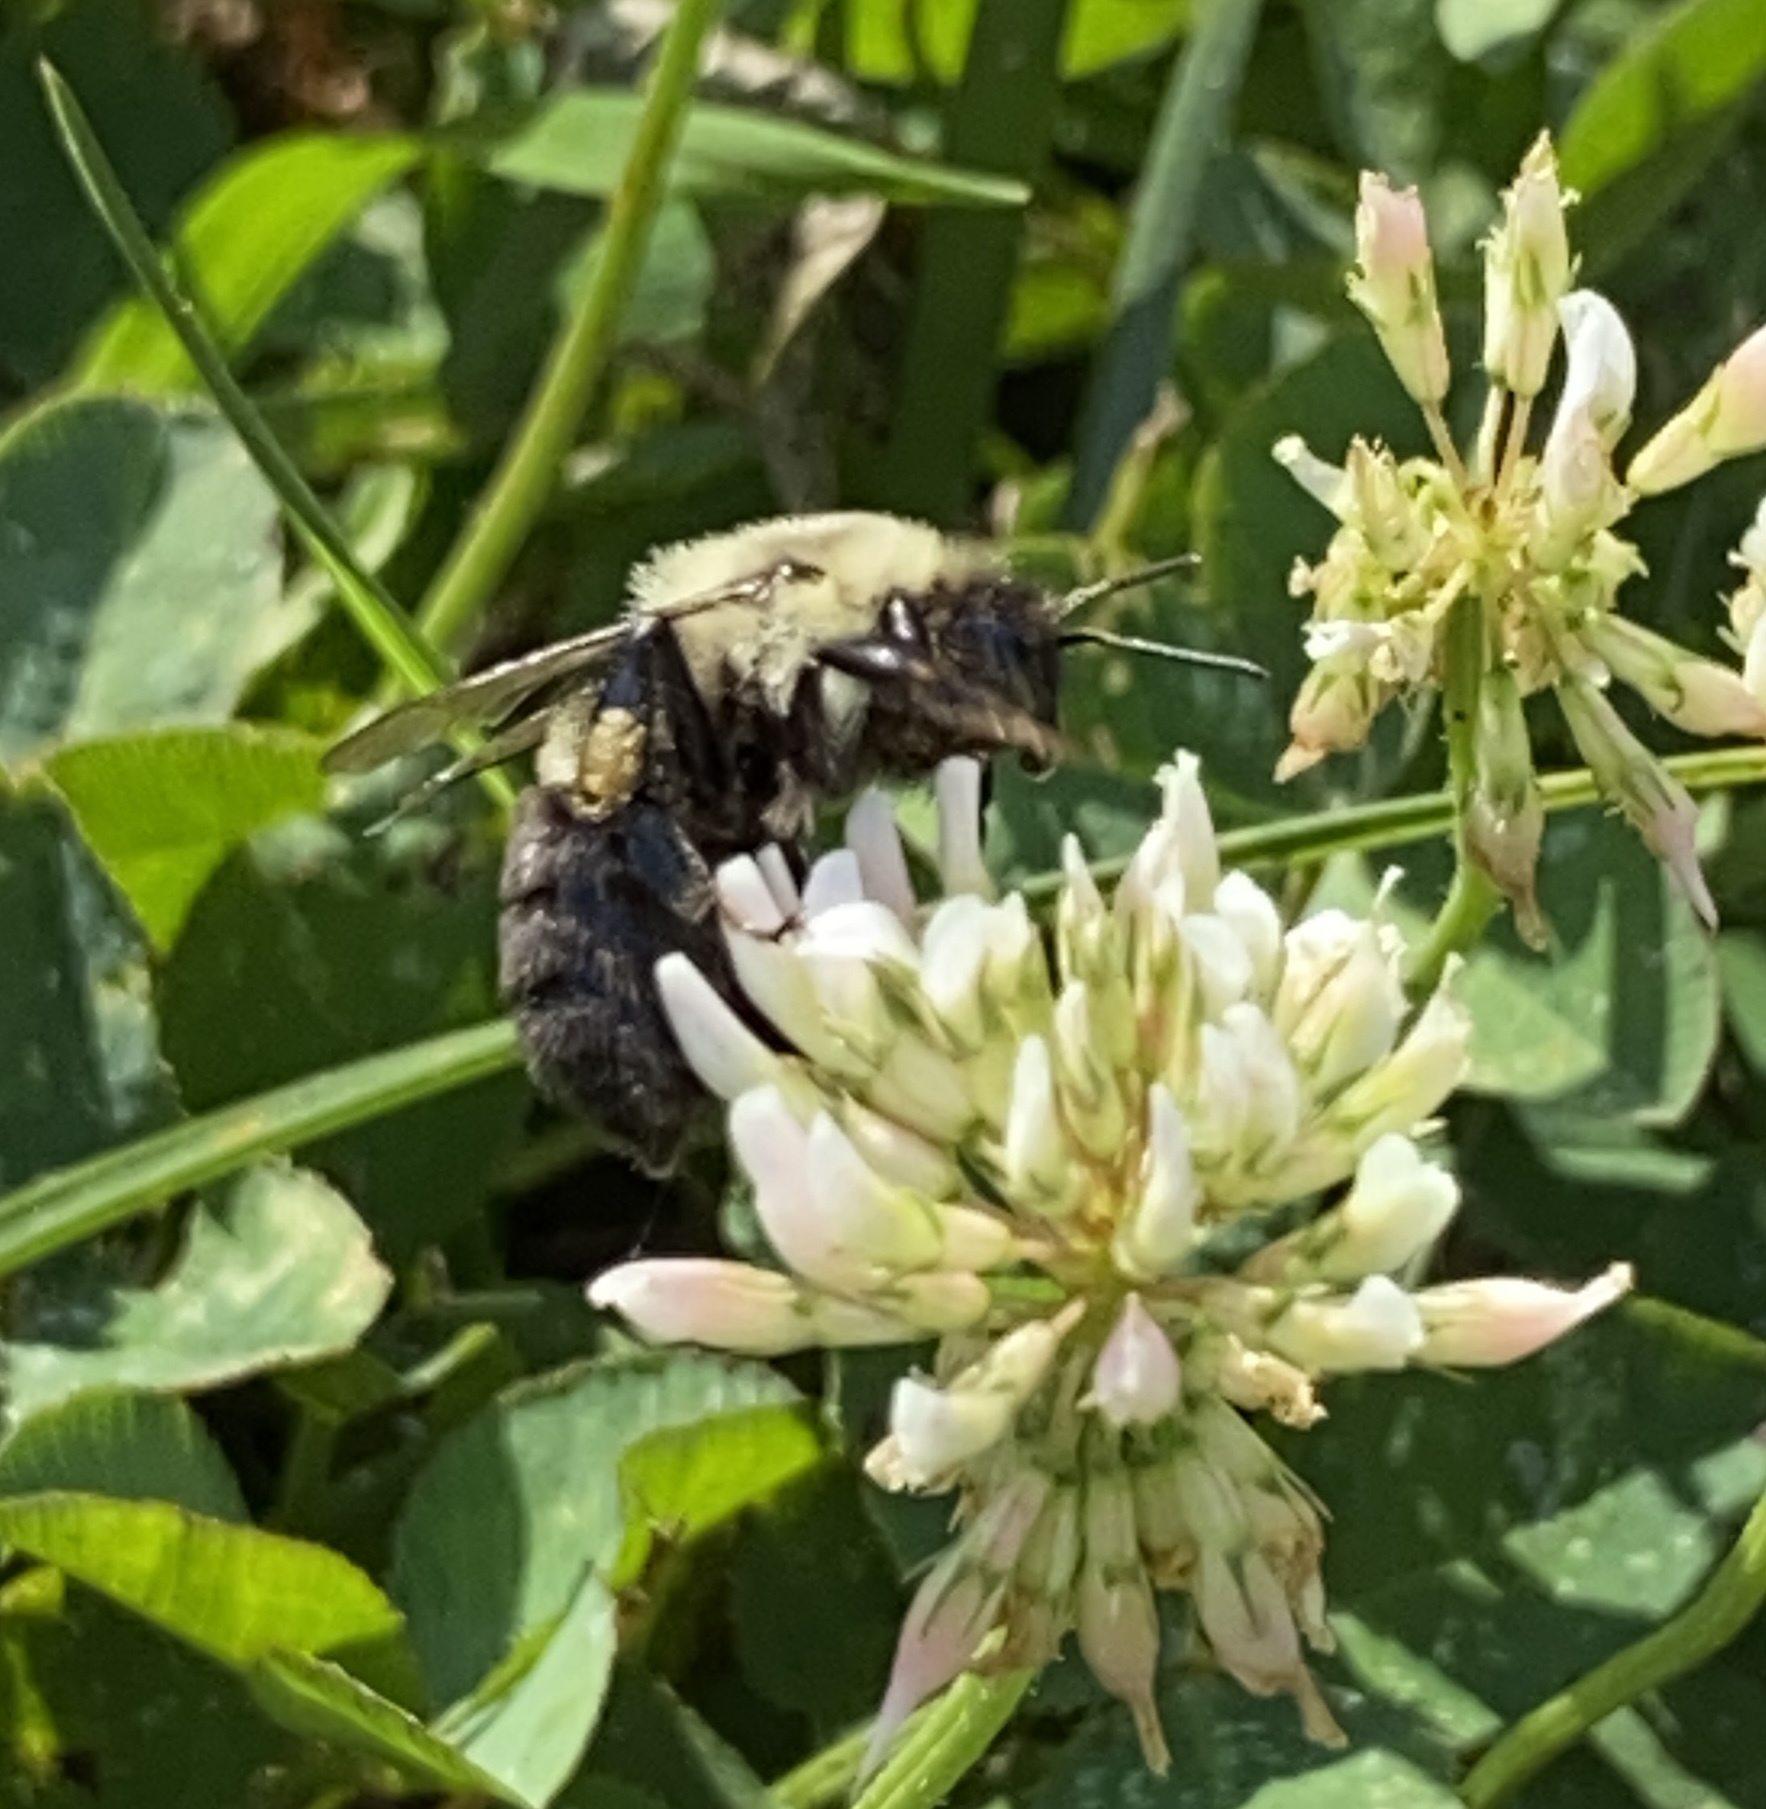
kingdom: Animalia
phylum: Arthropoda
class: Insecta
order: Hymenoptera
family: Apidae
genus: Bombus
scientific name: Bombus impatiens
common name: Common eastern bumble bee
